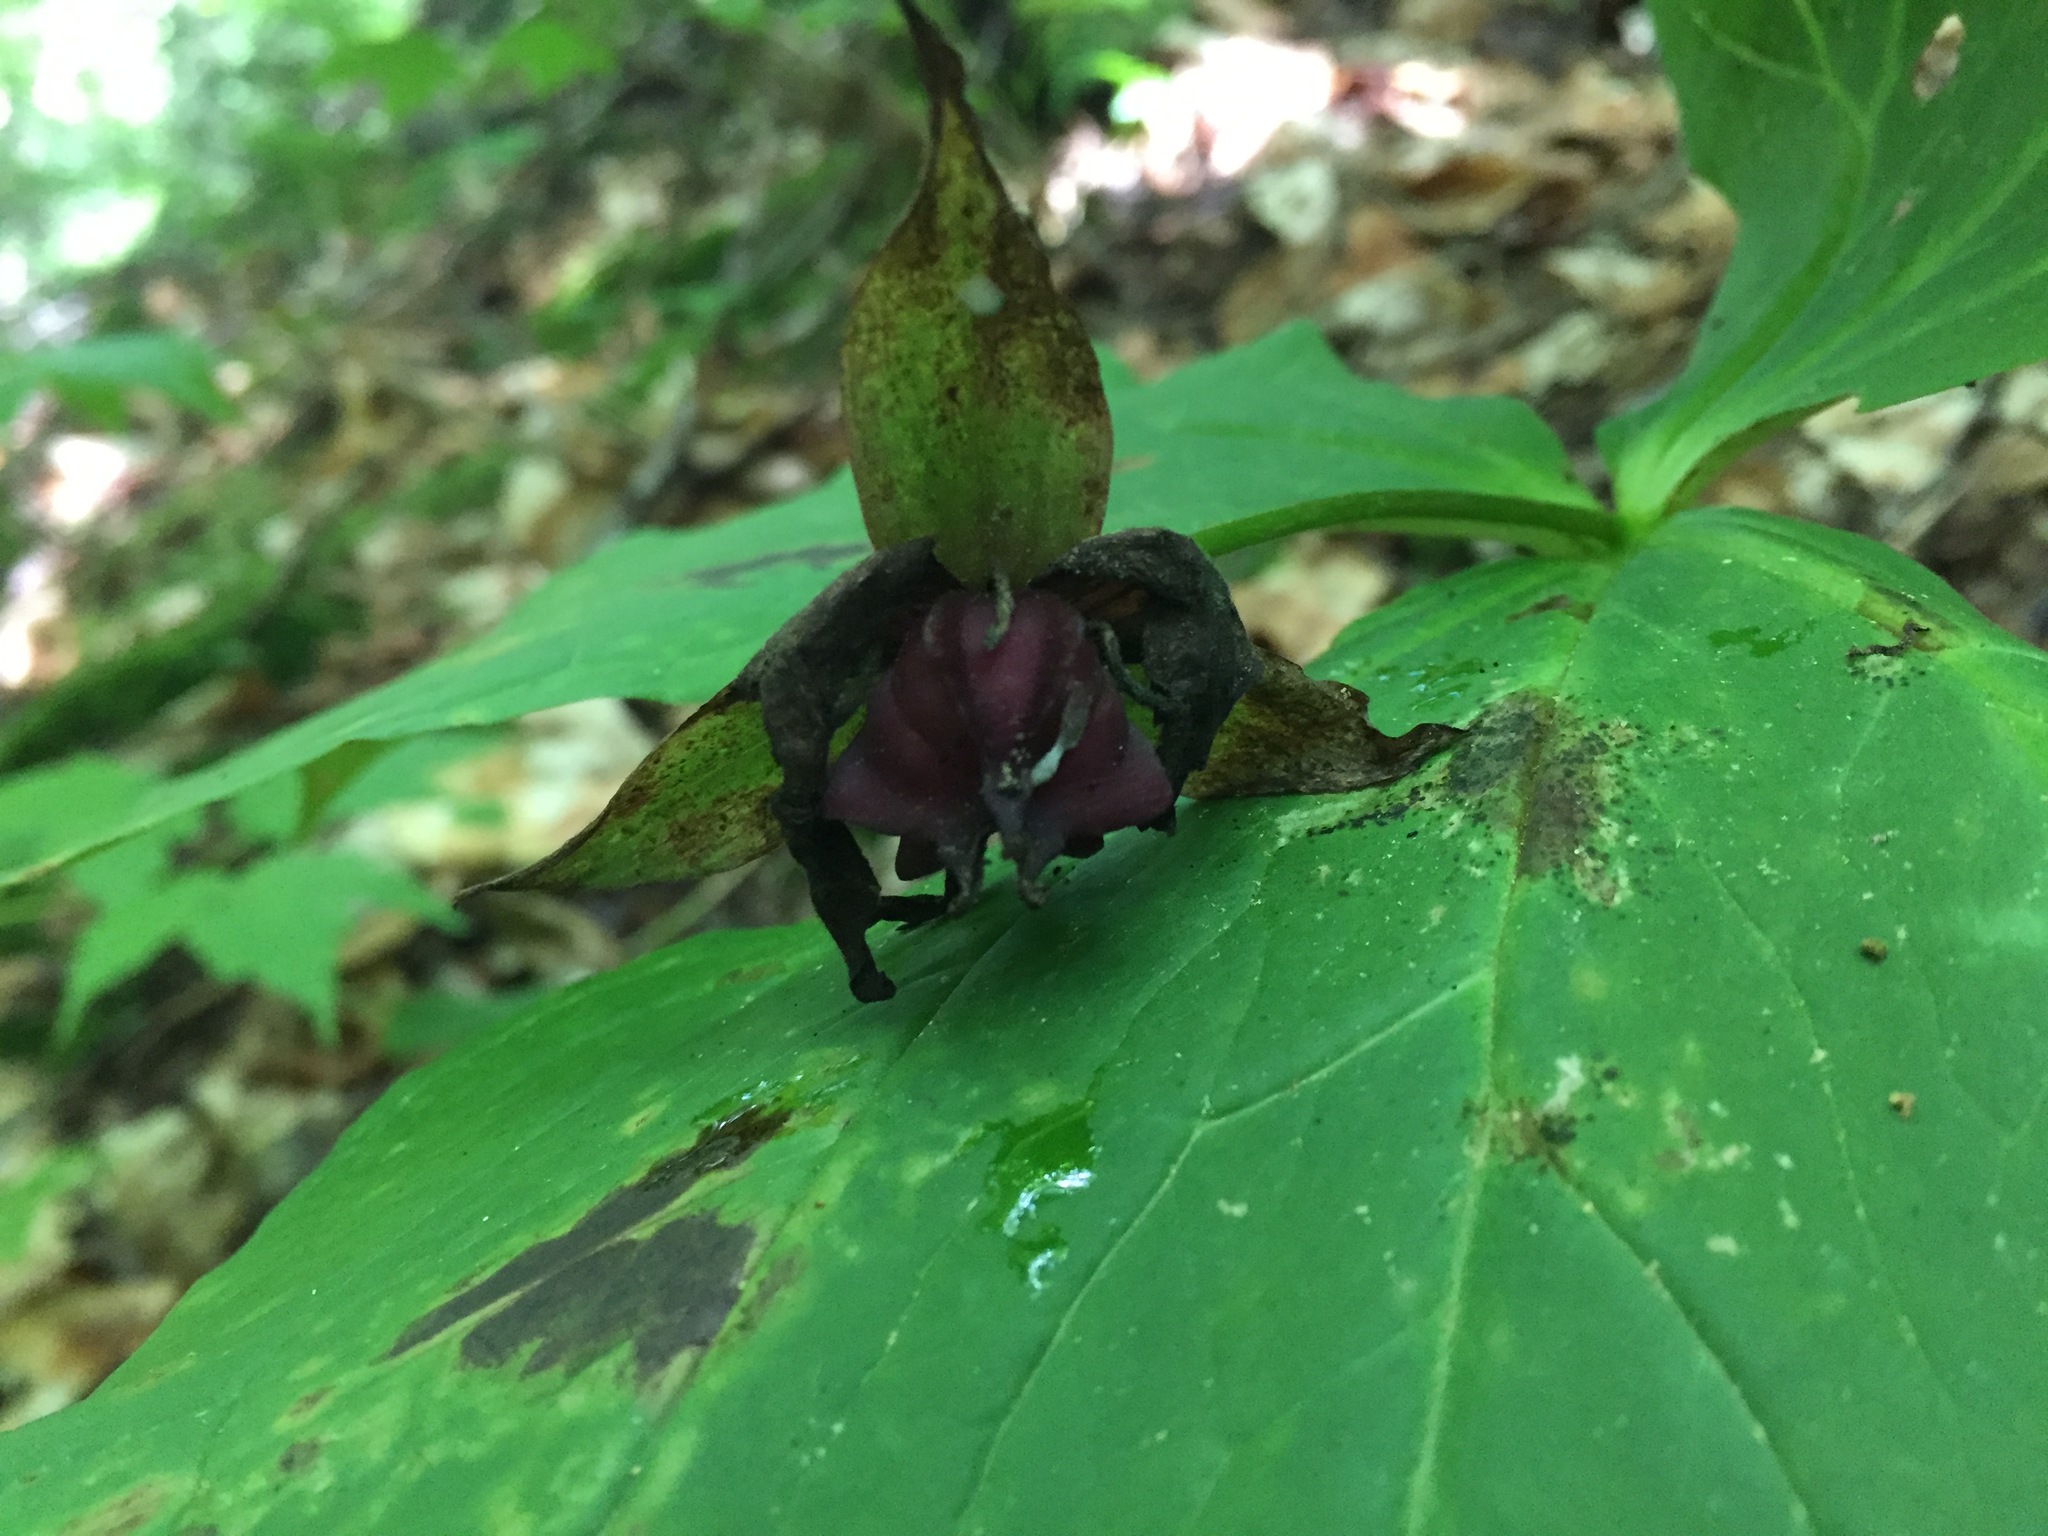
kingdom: Plantae
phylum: Tracheophyta
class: Liliopsida
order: Liliales
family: Melanthiaceae
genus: Trillium
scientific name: Trillium erectum
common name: Purple trillium
